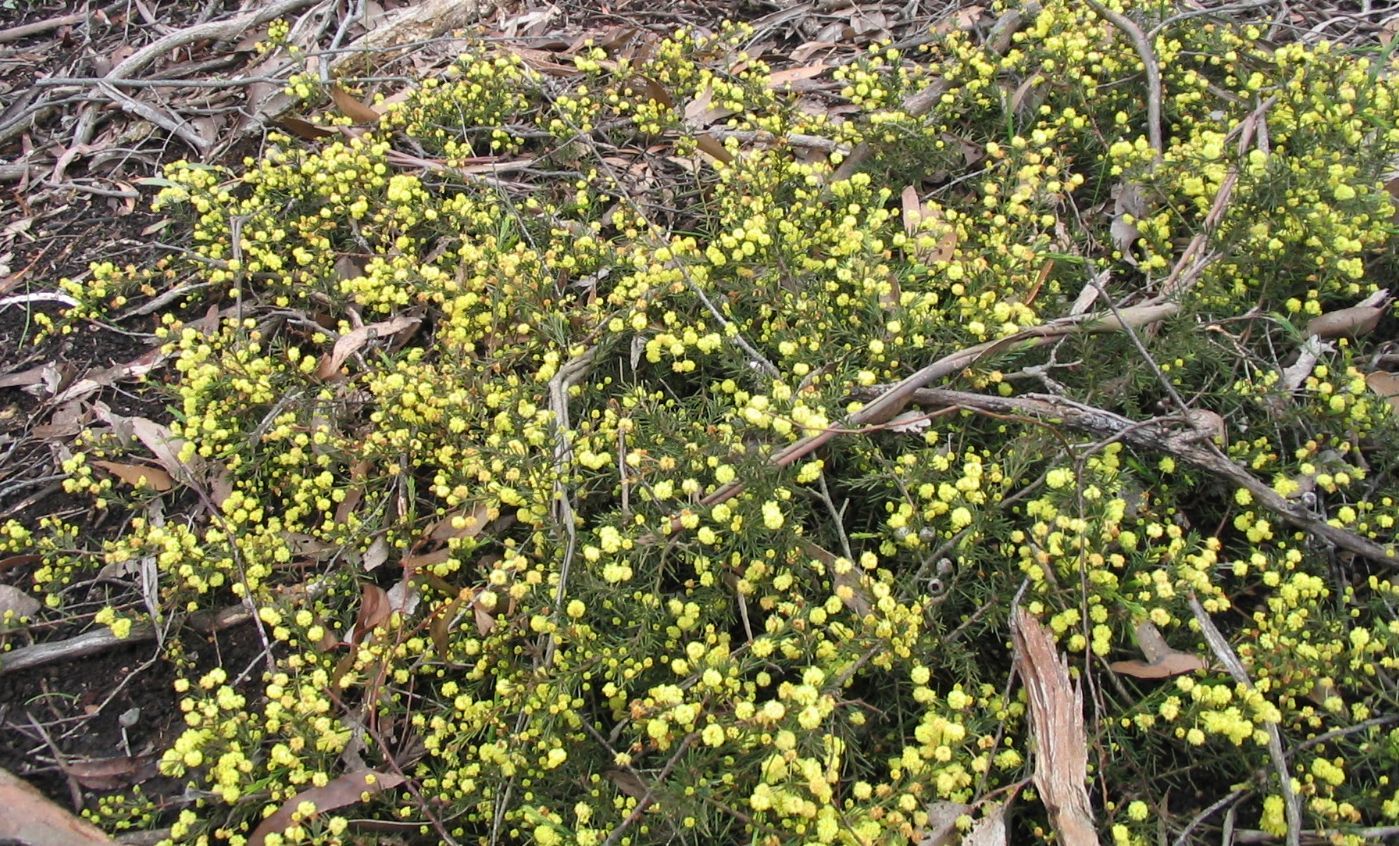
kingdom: Plantae
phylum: Tracheophyta
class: Magnoliopsida
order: Fabales
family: Fabaceae
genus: Acacia
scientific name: Acacia aculeatissima
